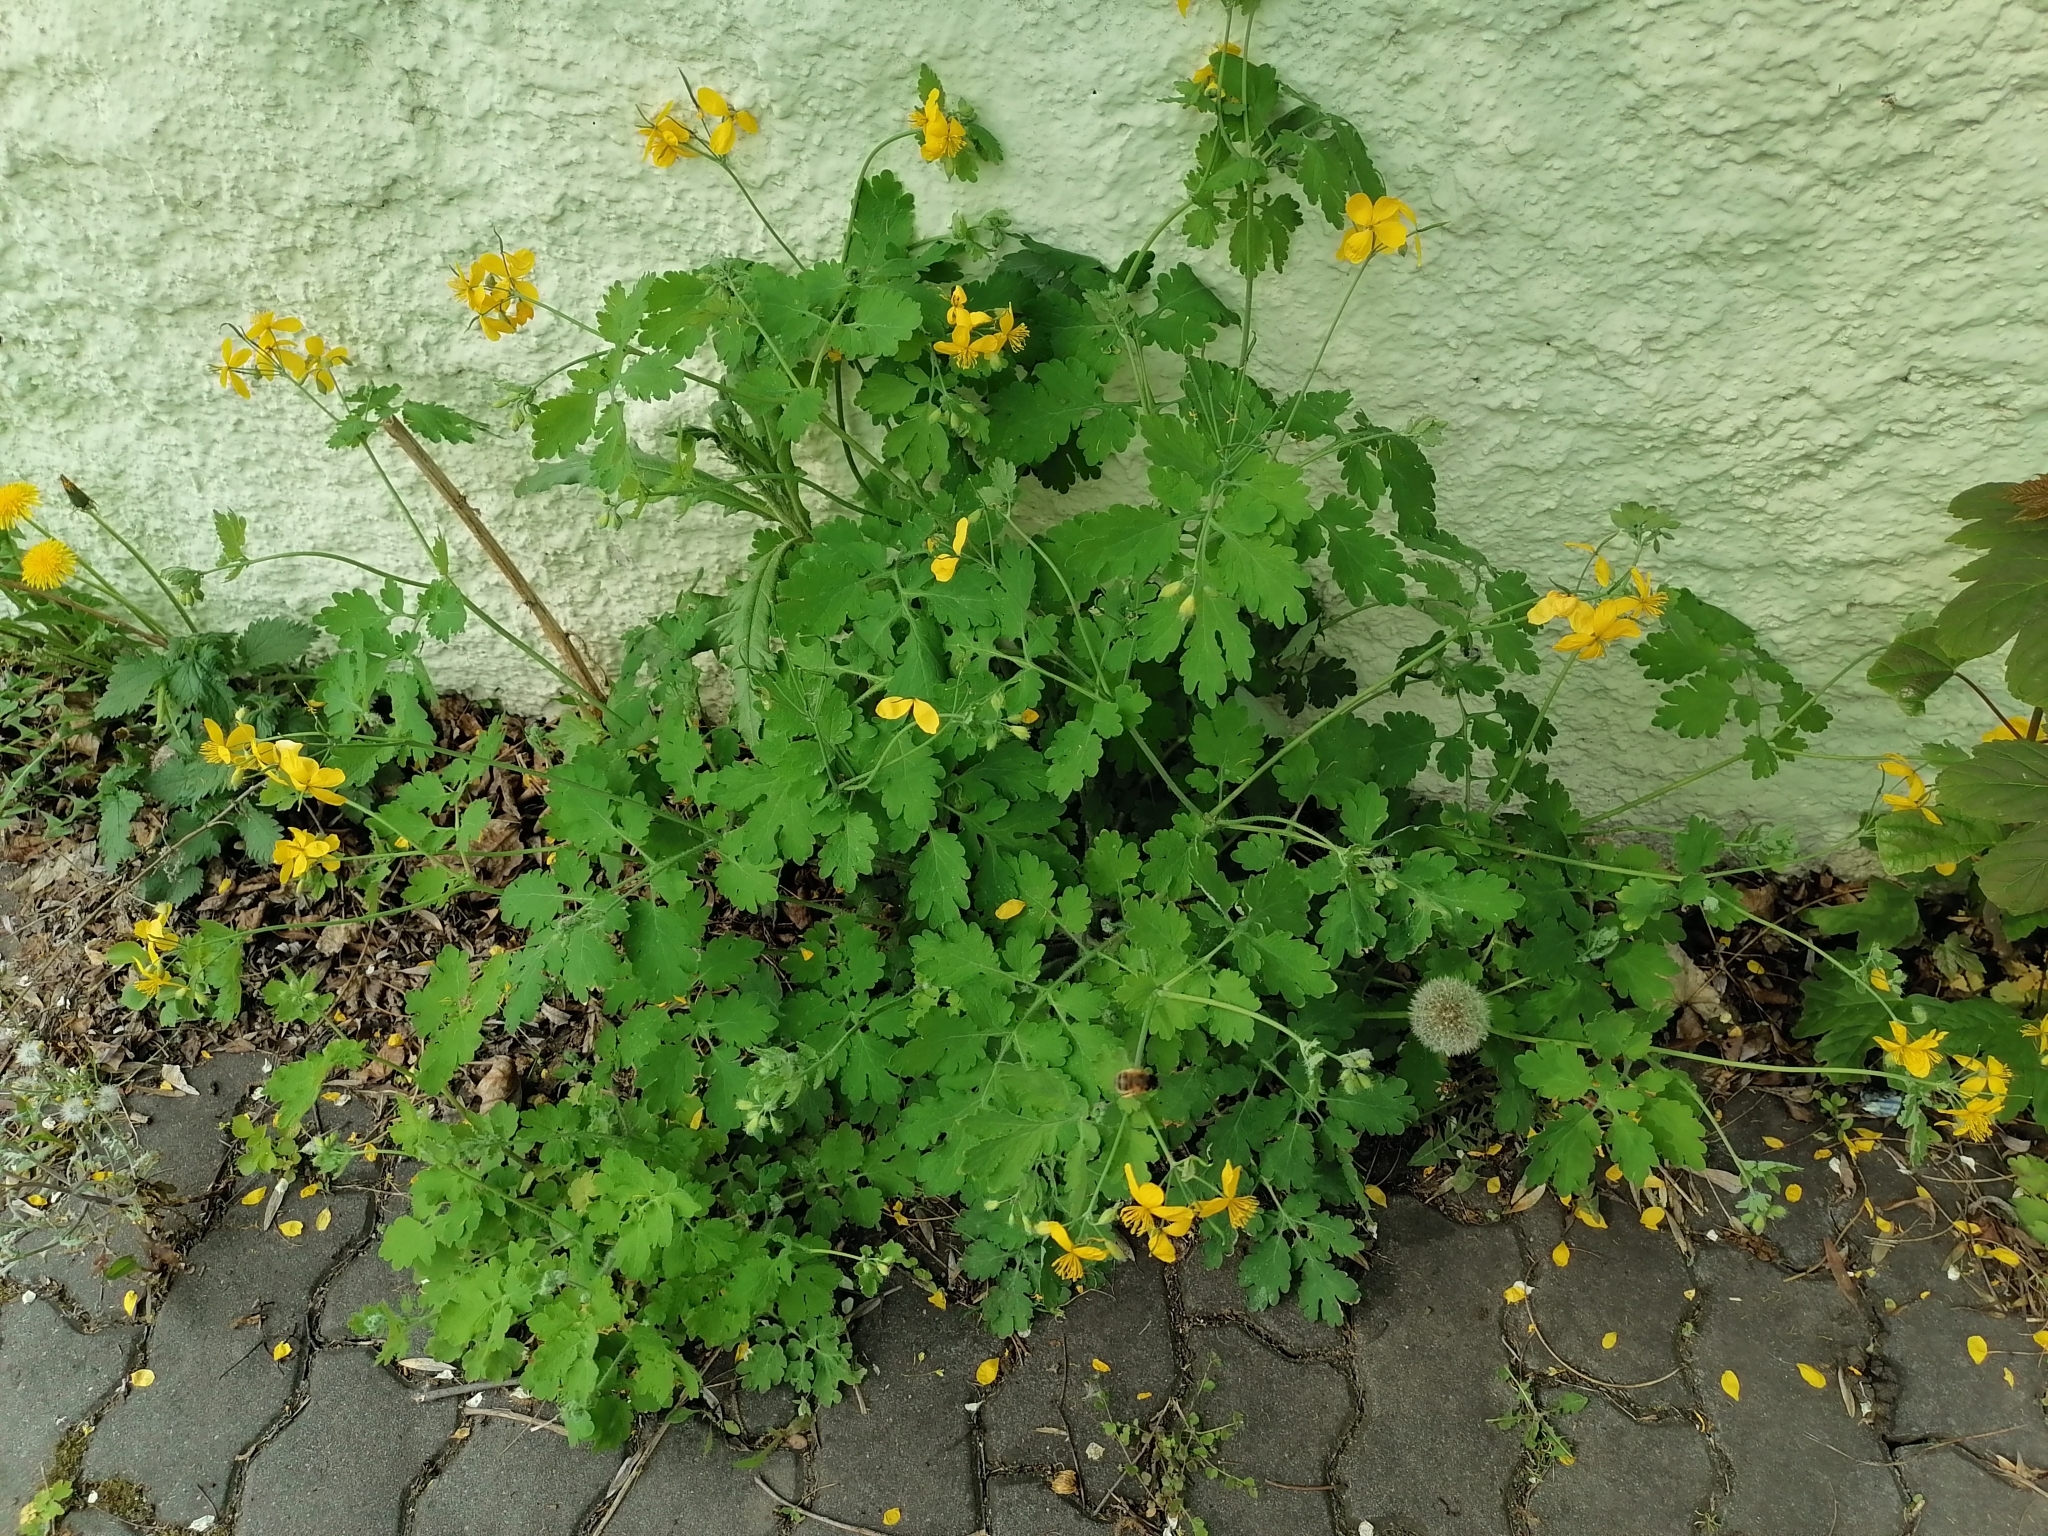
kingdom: Plantae
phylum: Tracheophyta
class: Magnoliopsida
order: Ranunculales
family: Papaveraceae
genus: Chelidonium
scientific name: Chelidonium majus
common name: Greater celandine
